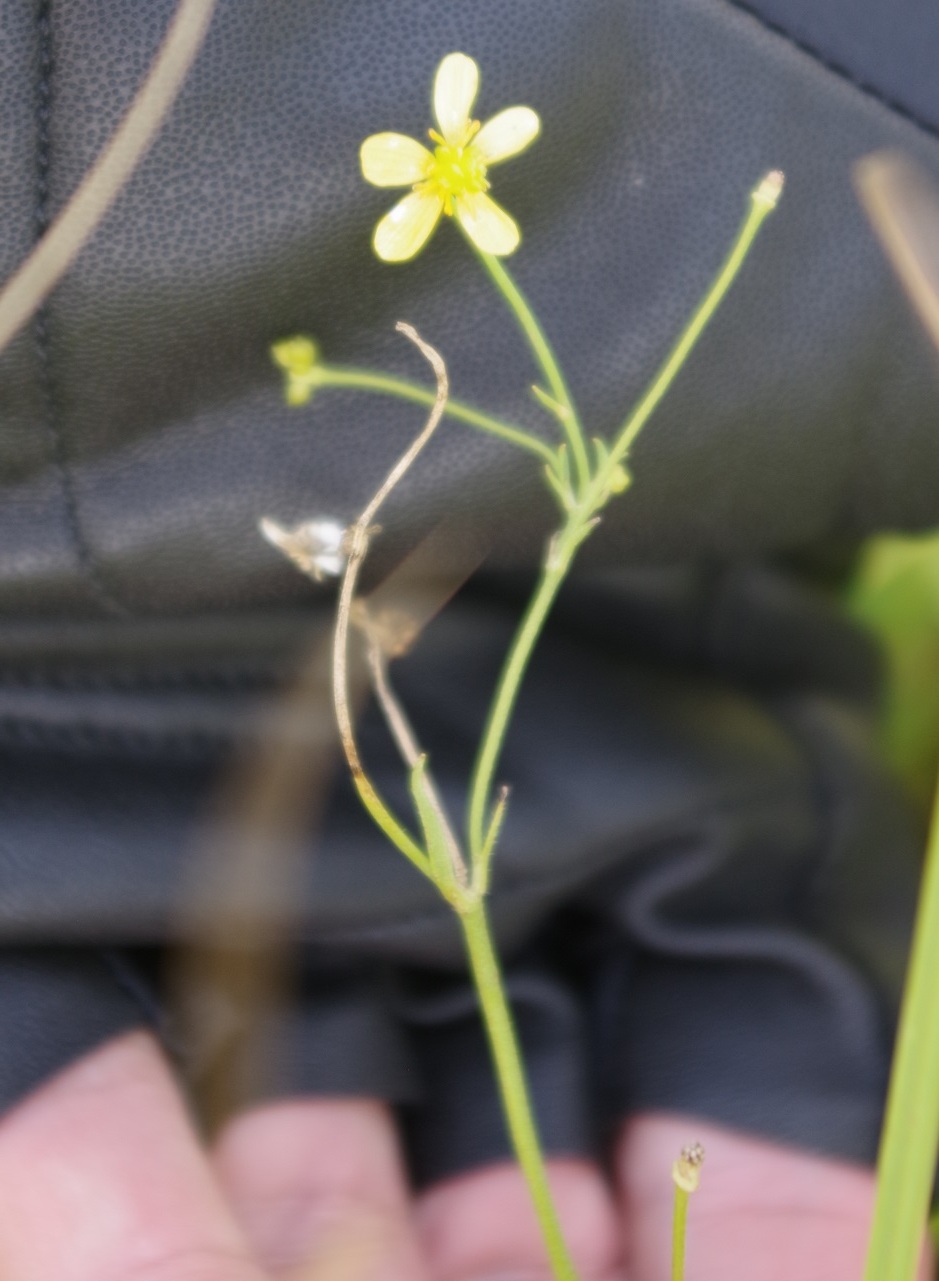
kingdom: Plantae
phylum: Tracheophyta
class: Magnoliopsida
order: Ranunculales
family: Ranunculaceae
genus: Ranunculus
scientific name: Ranunculus flammula
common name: Lesser spearwort
